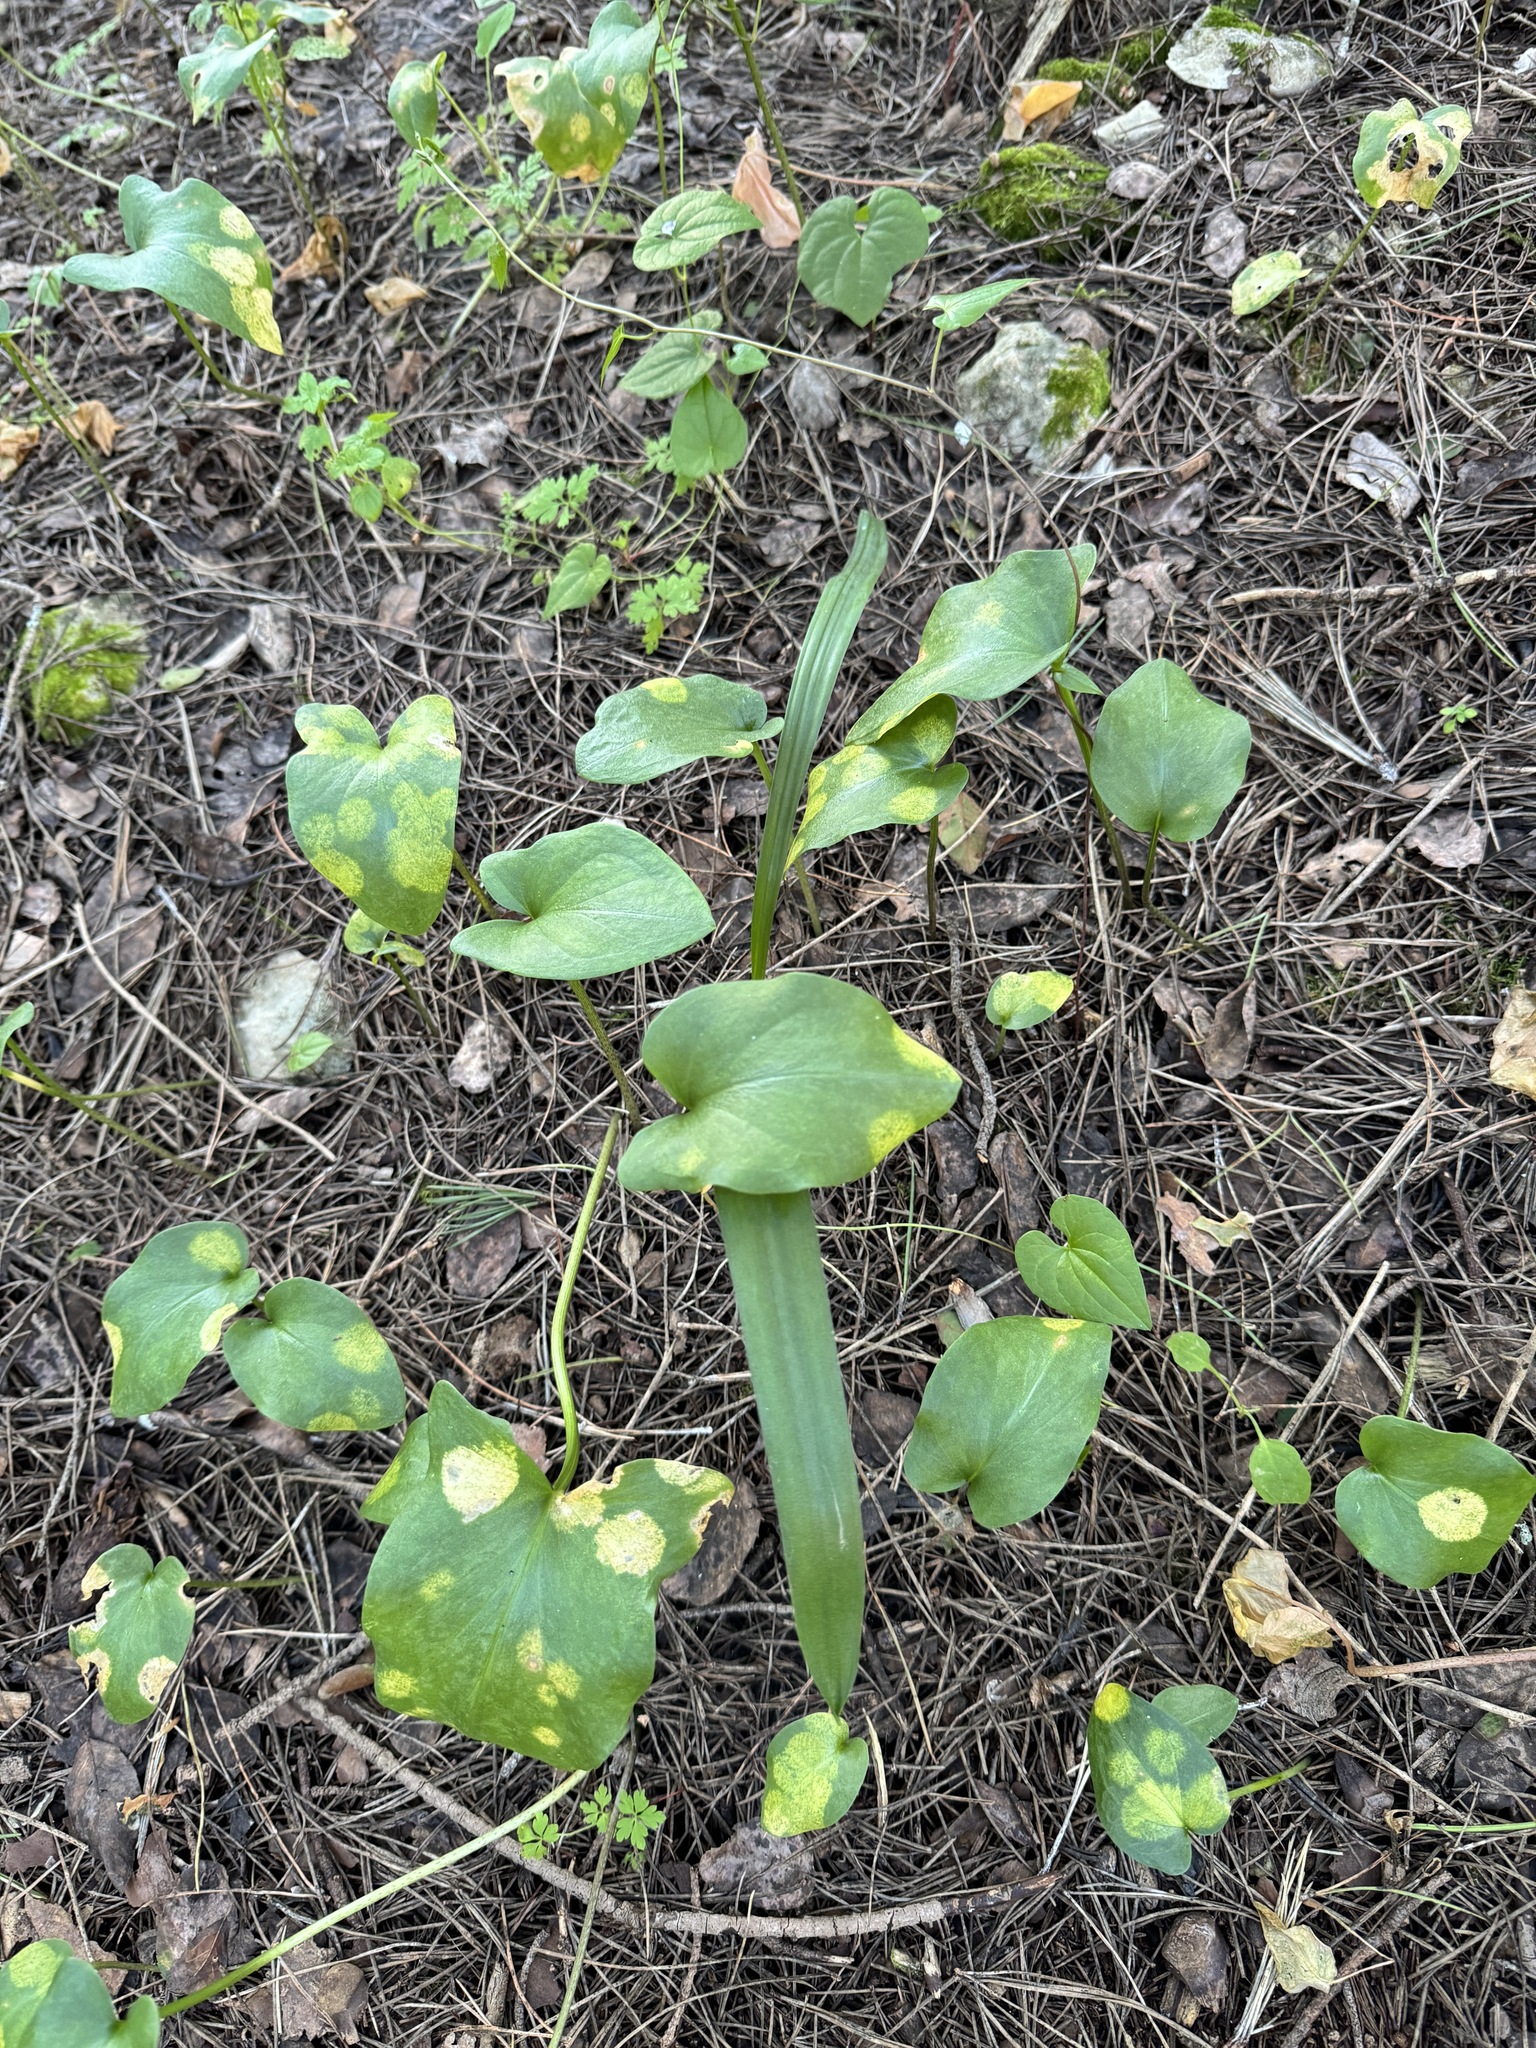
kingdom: Plantae
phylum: Tracheophyta
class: Liliopsida
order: Alismatales
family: Araceae
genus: Arisarum
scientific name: Arisarum simorrhinum
